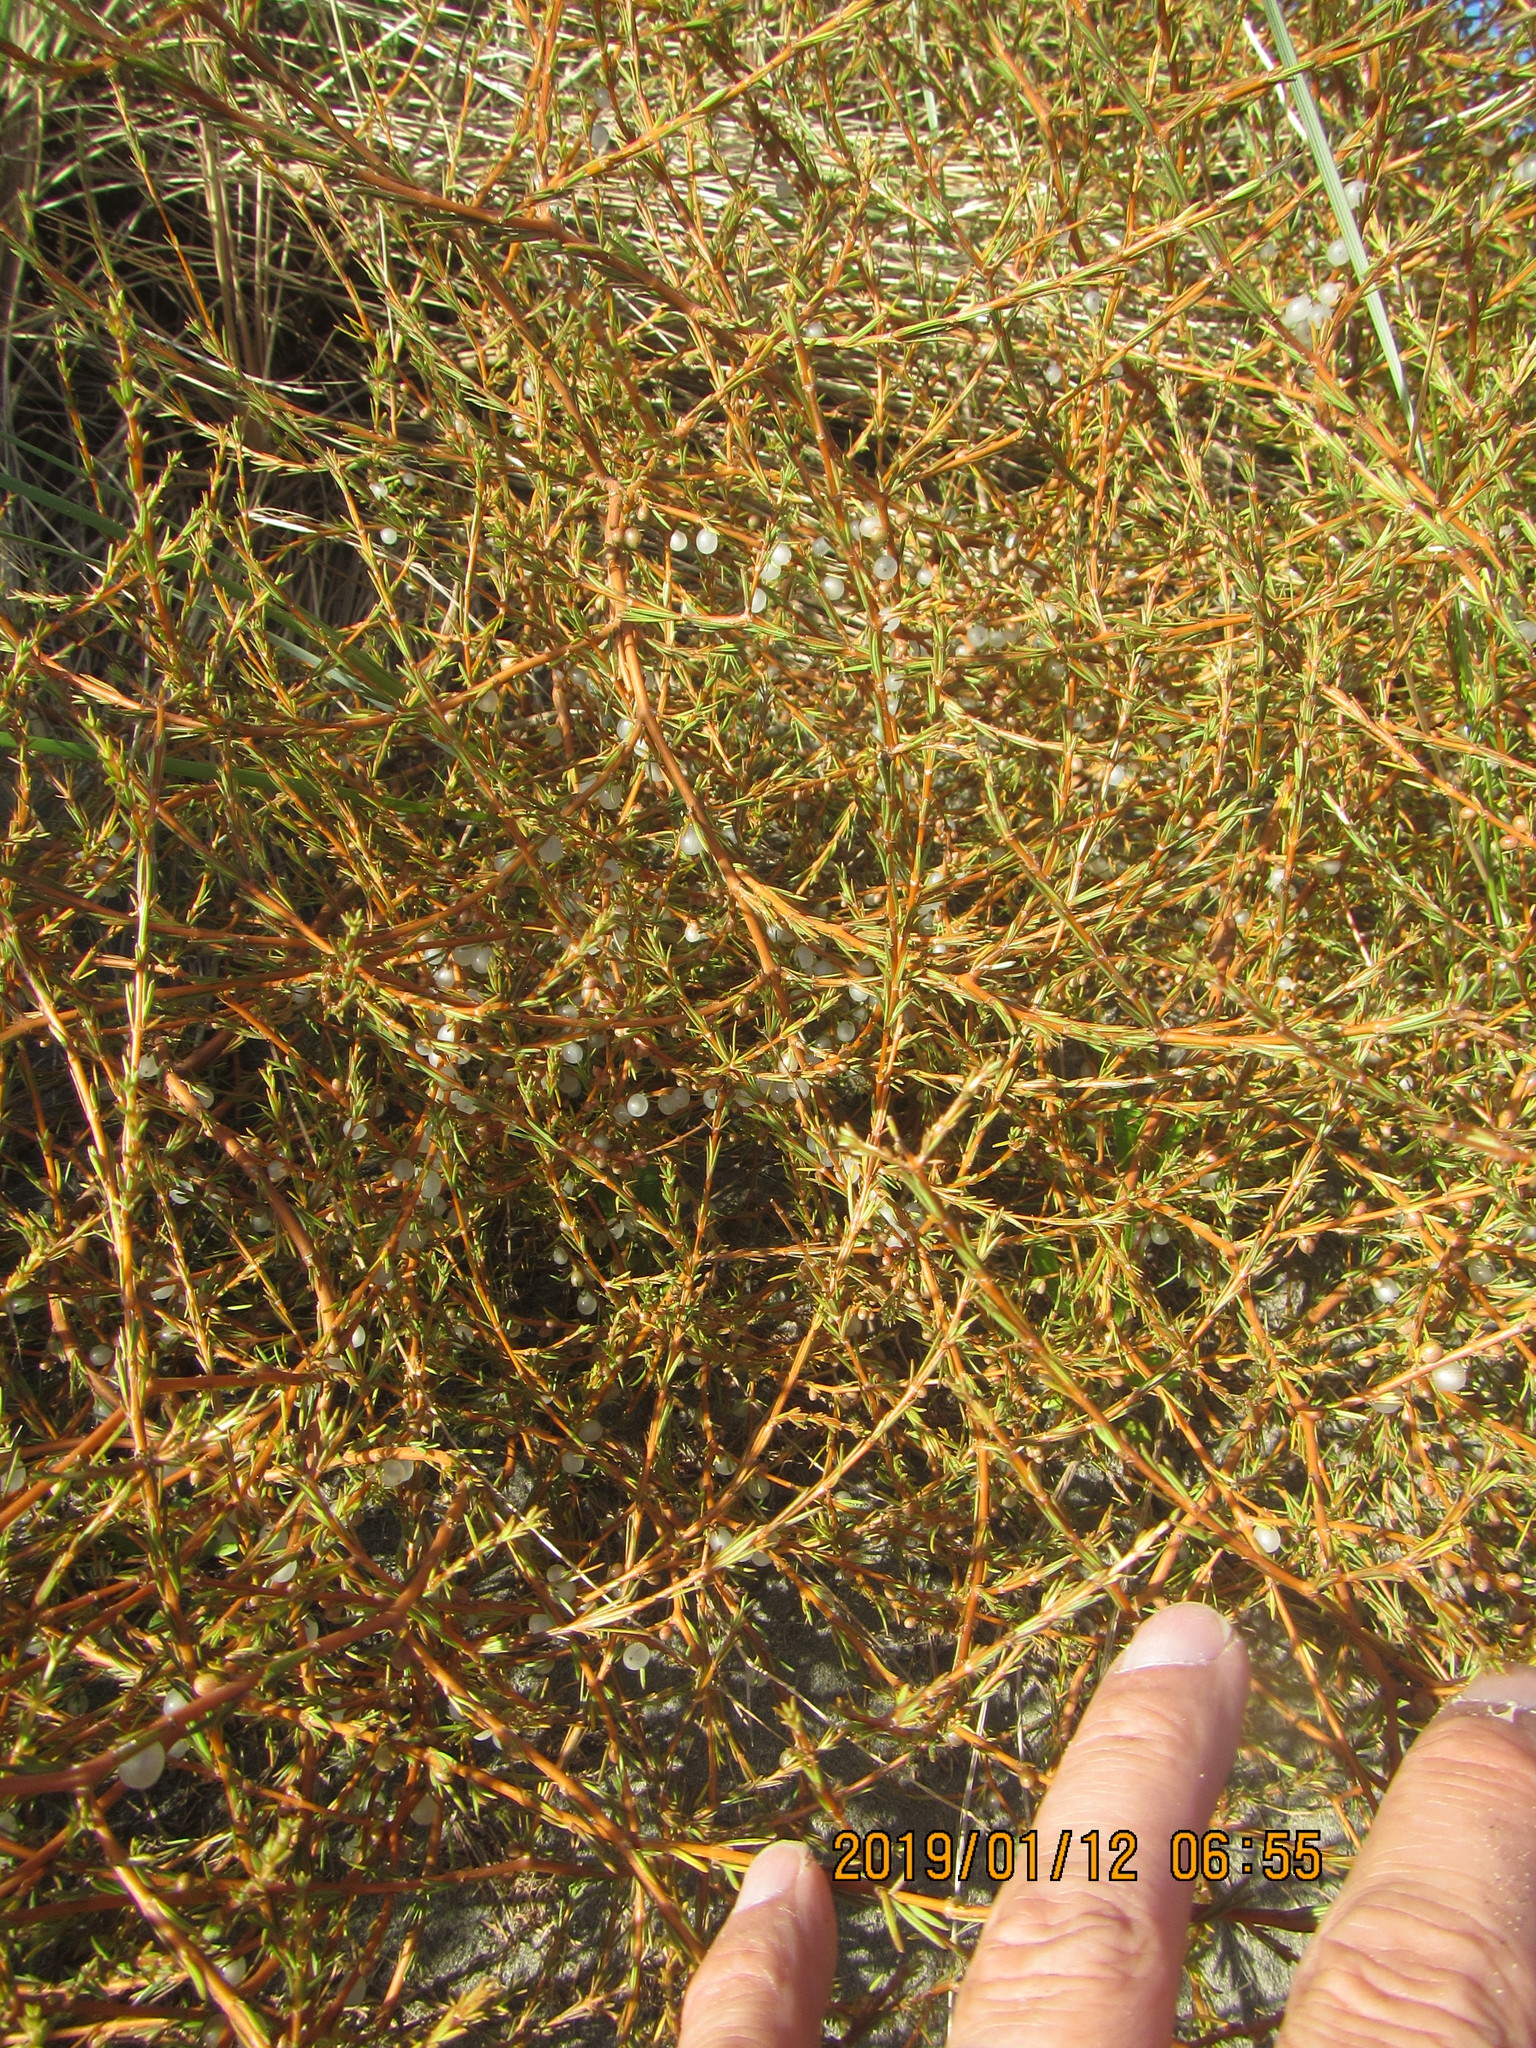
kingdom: Plantae
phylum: Tracheophyta
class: Magnoliopsida
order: Gentianales
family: Rubiaceae
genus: Coprosma
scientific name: Coprosma acerosa
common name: Sand coprosma
